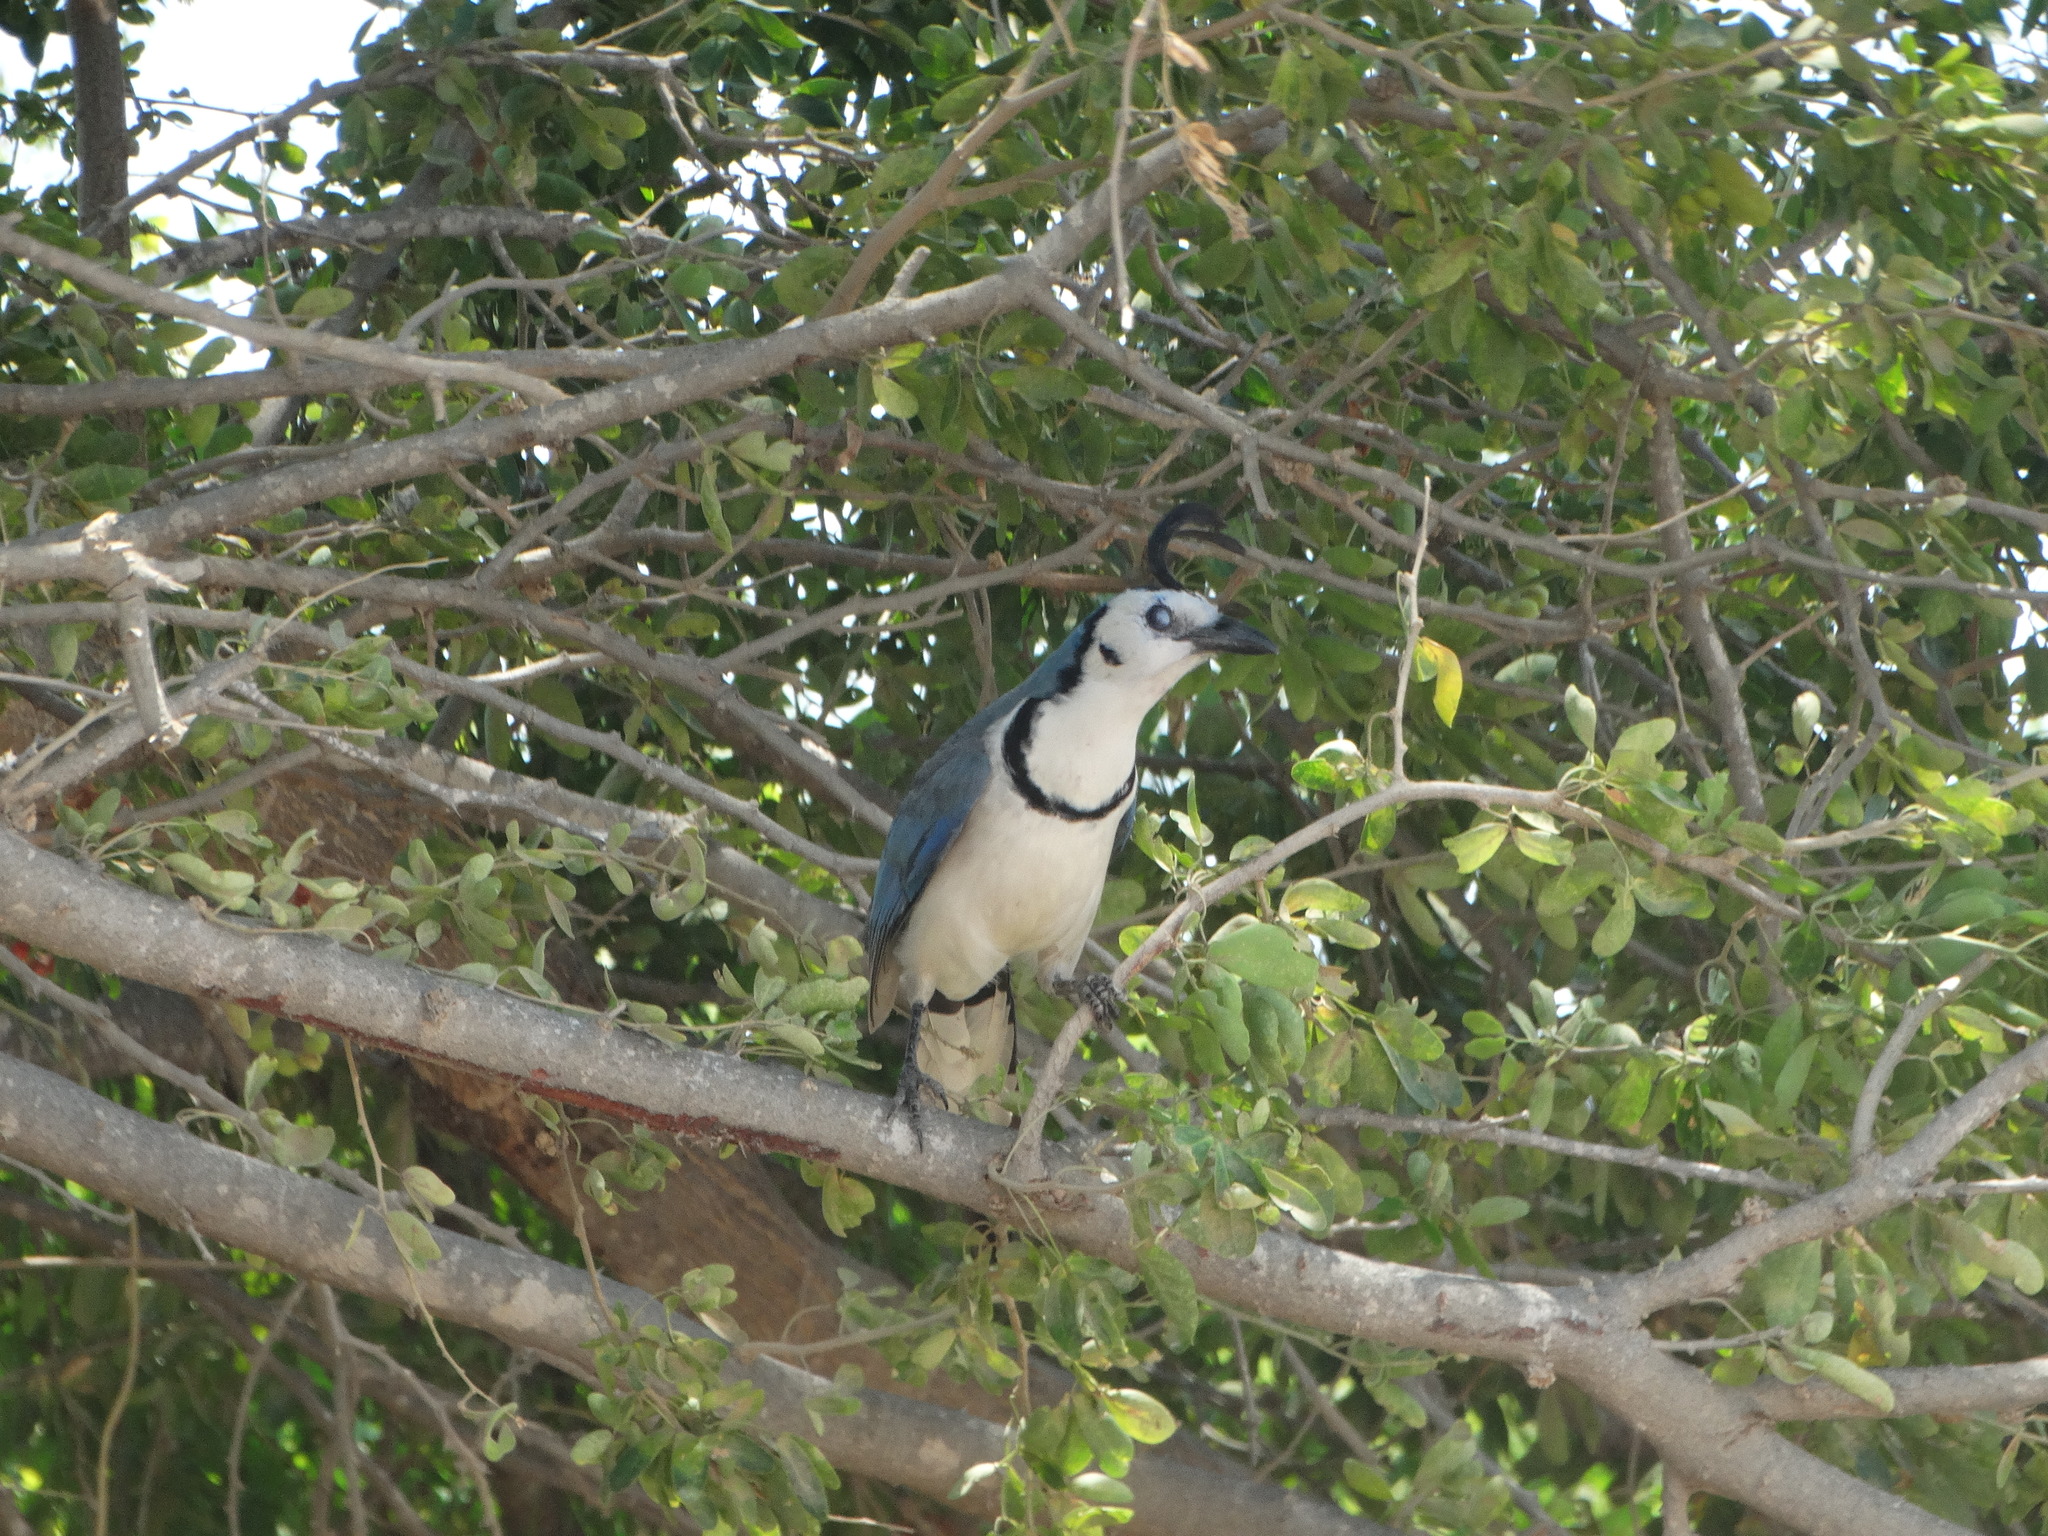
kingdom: Animalia
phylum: Chordata
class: Aves
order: Passeriformes
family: Corvidae
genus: Calocitta
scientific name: Calocitta formosa
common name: White-throated magpie-jay
